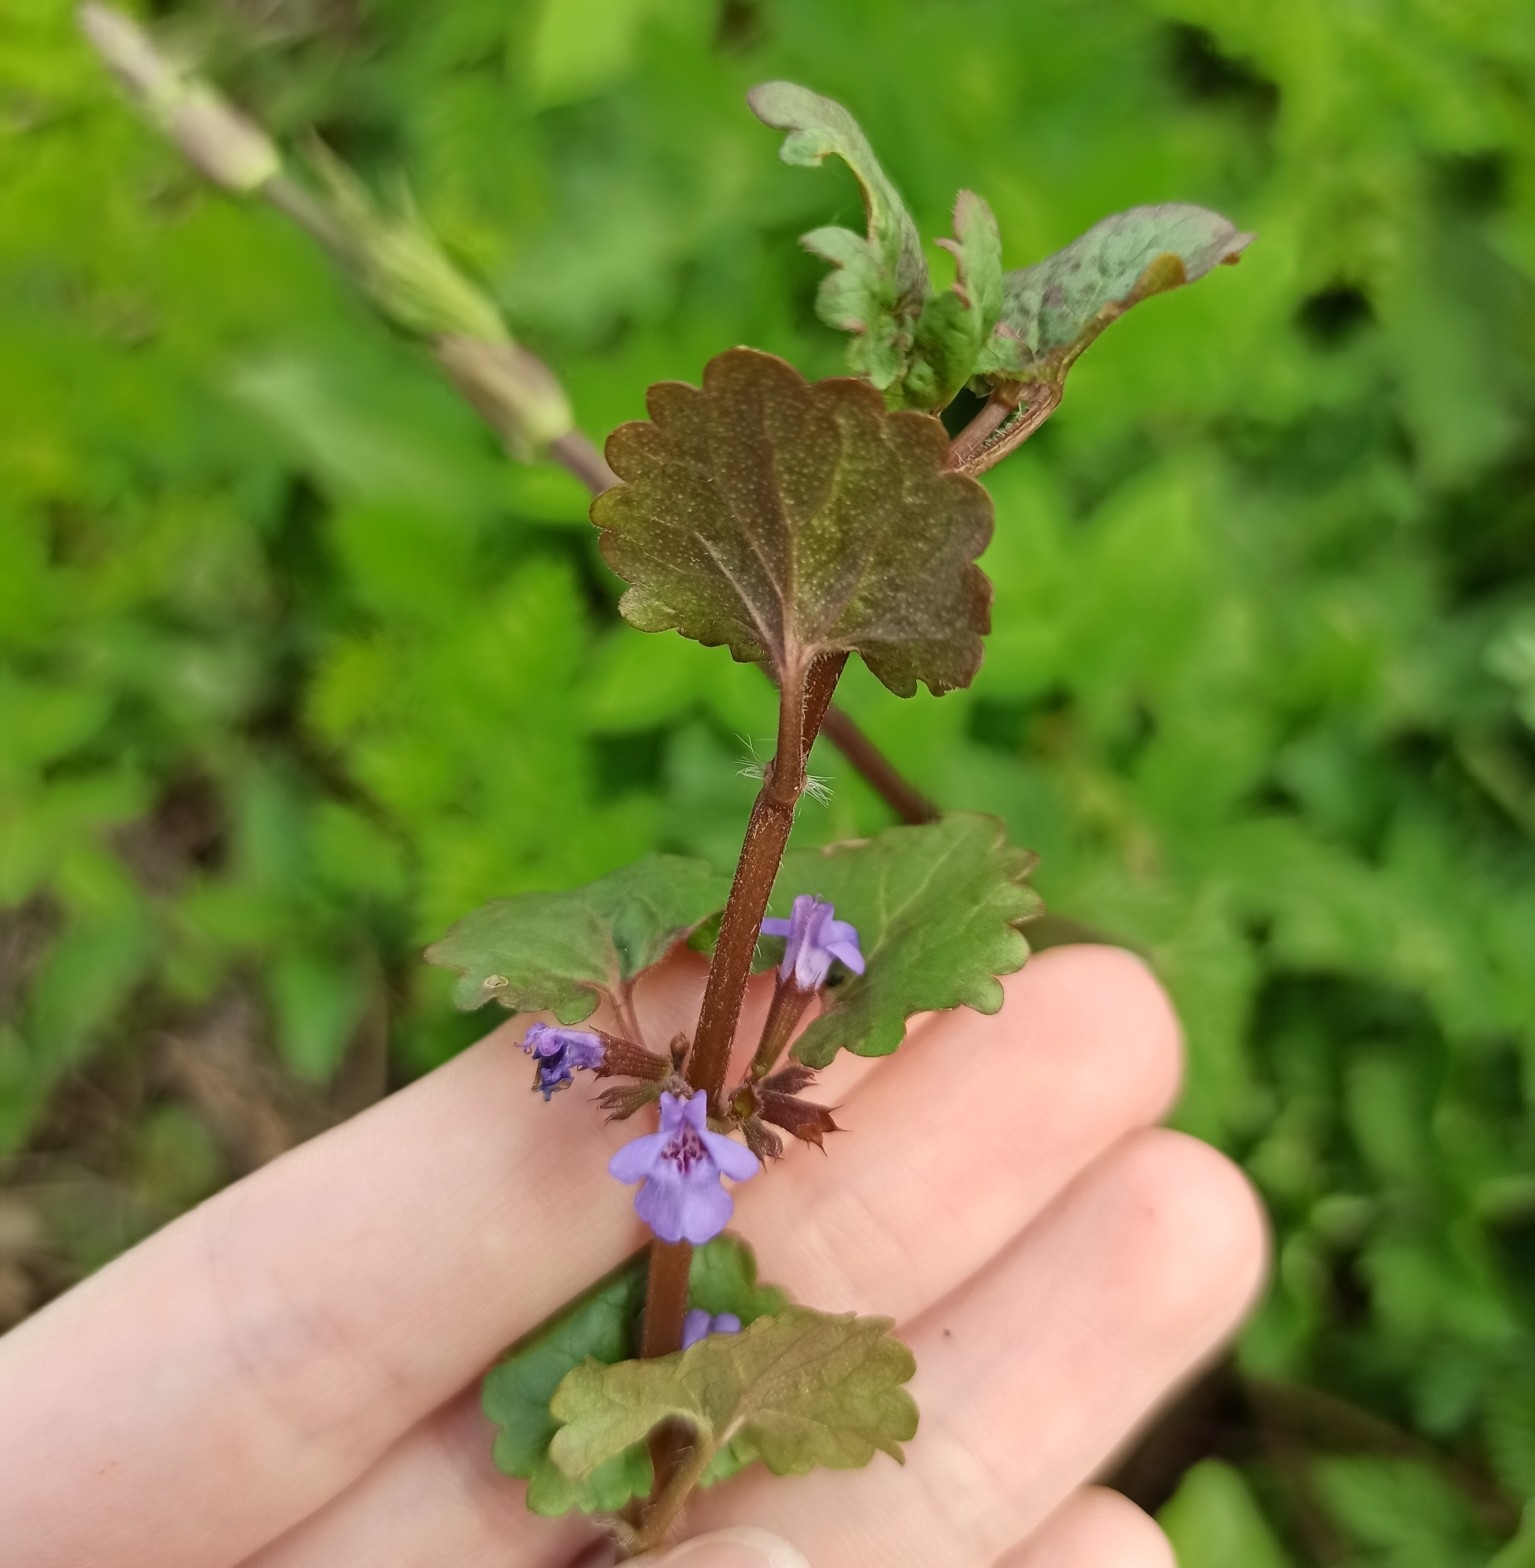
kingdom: Plantae
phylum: Tracheophyta
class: Magnoliopsida
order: Lamiales
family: Lamiaceae
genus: Glechoma
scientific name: Glechoma hederacea
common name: Ground ivy
